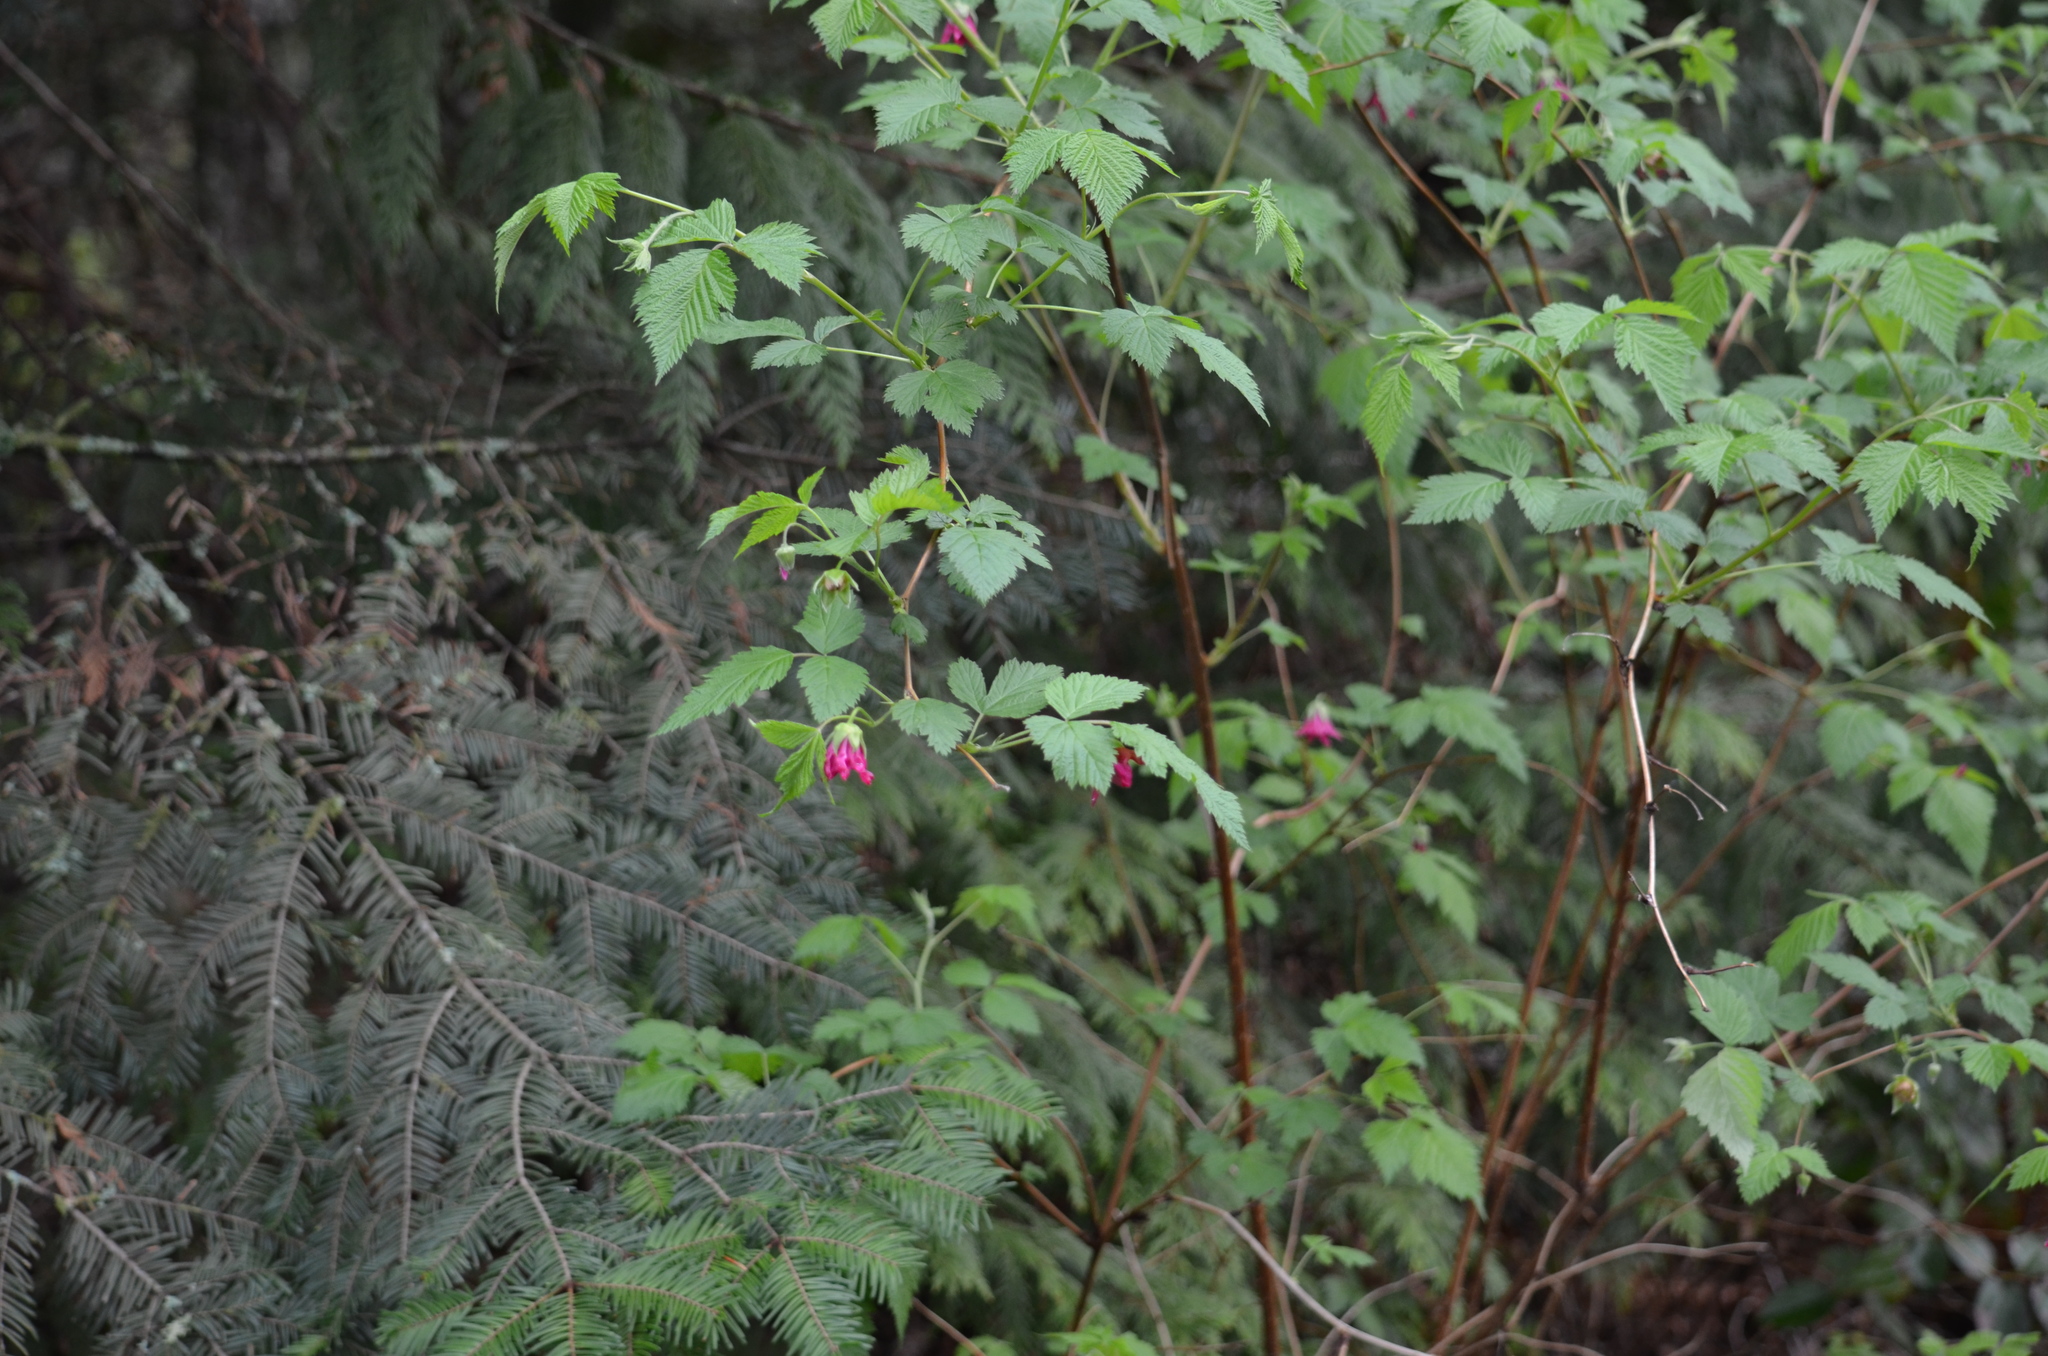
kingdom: Plantae
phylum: Tracheophyta
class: Magnoliopsida
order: Rosales
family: Rosaceae
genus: Rubus
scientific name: Rubus spectabilis
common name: Salmonberry
